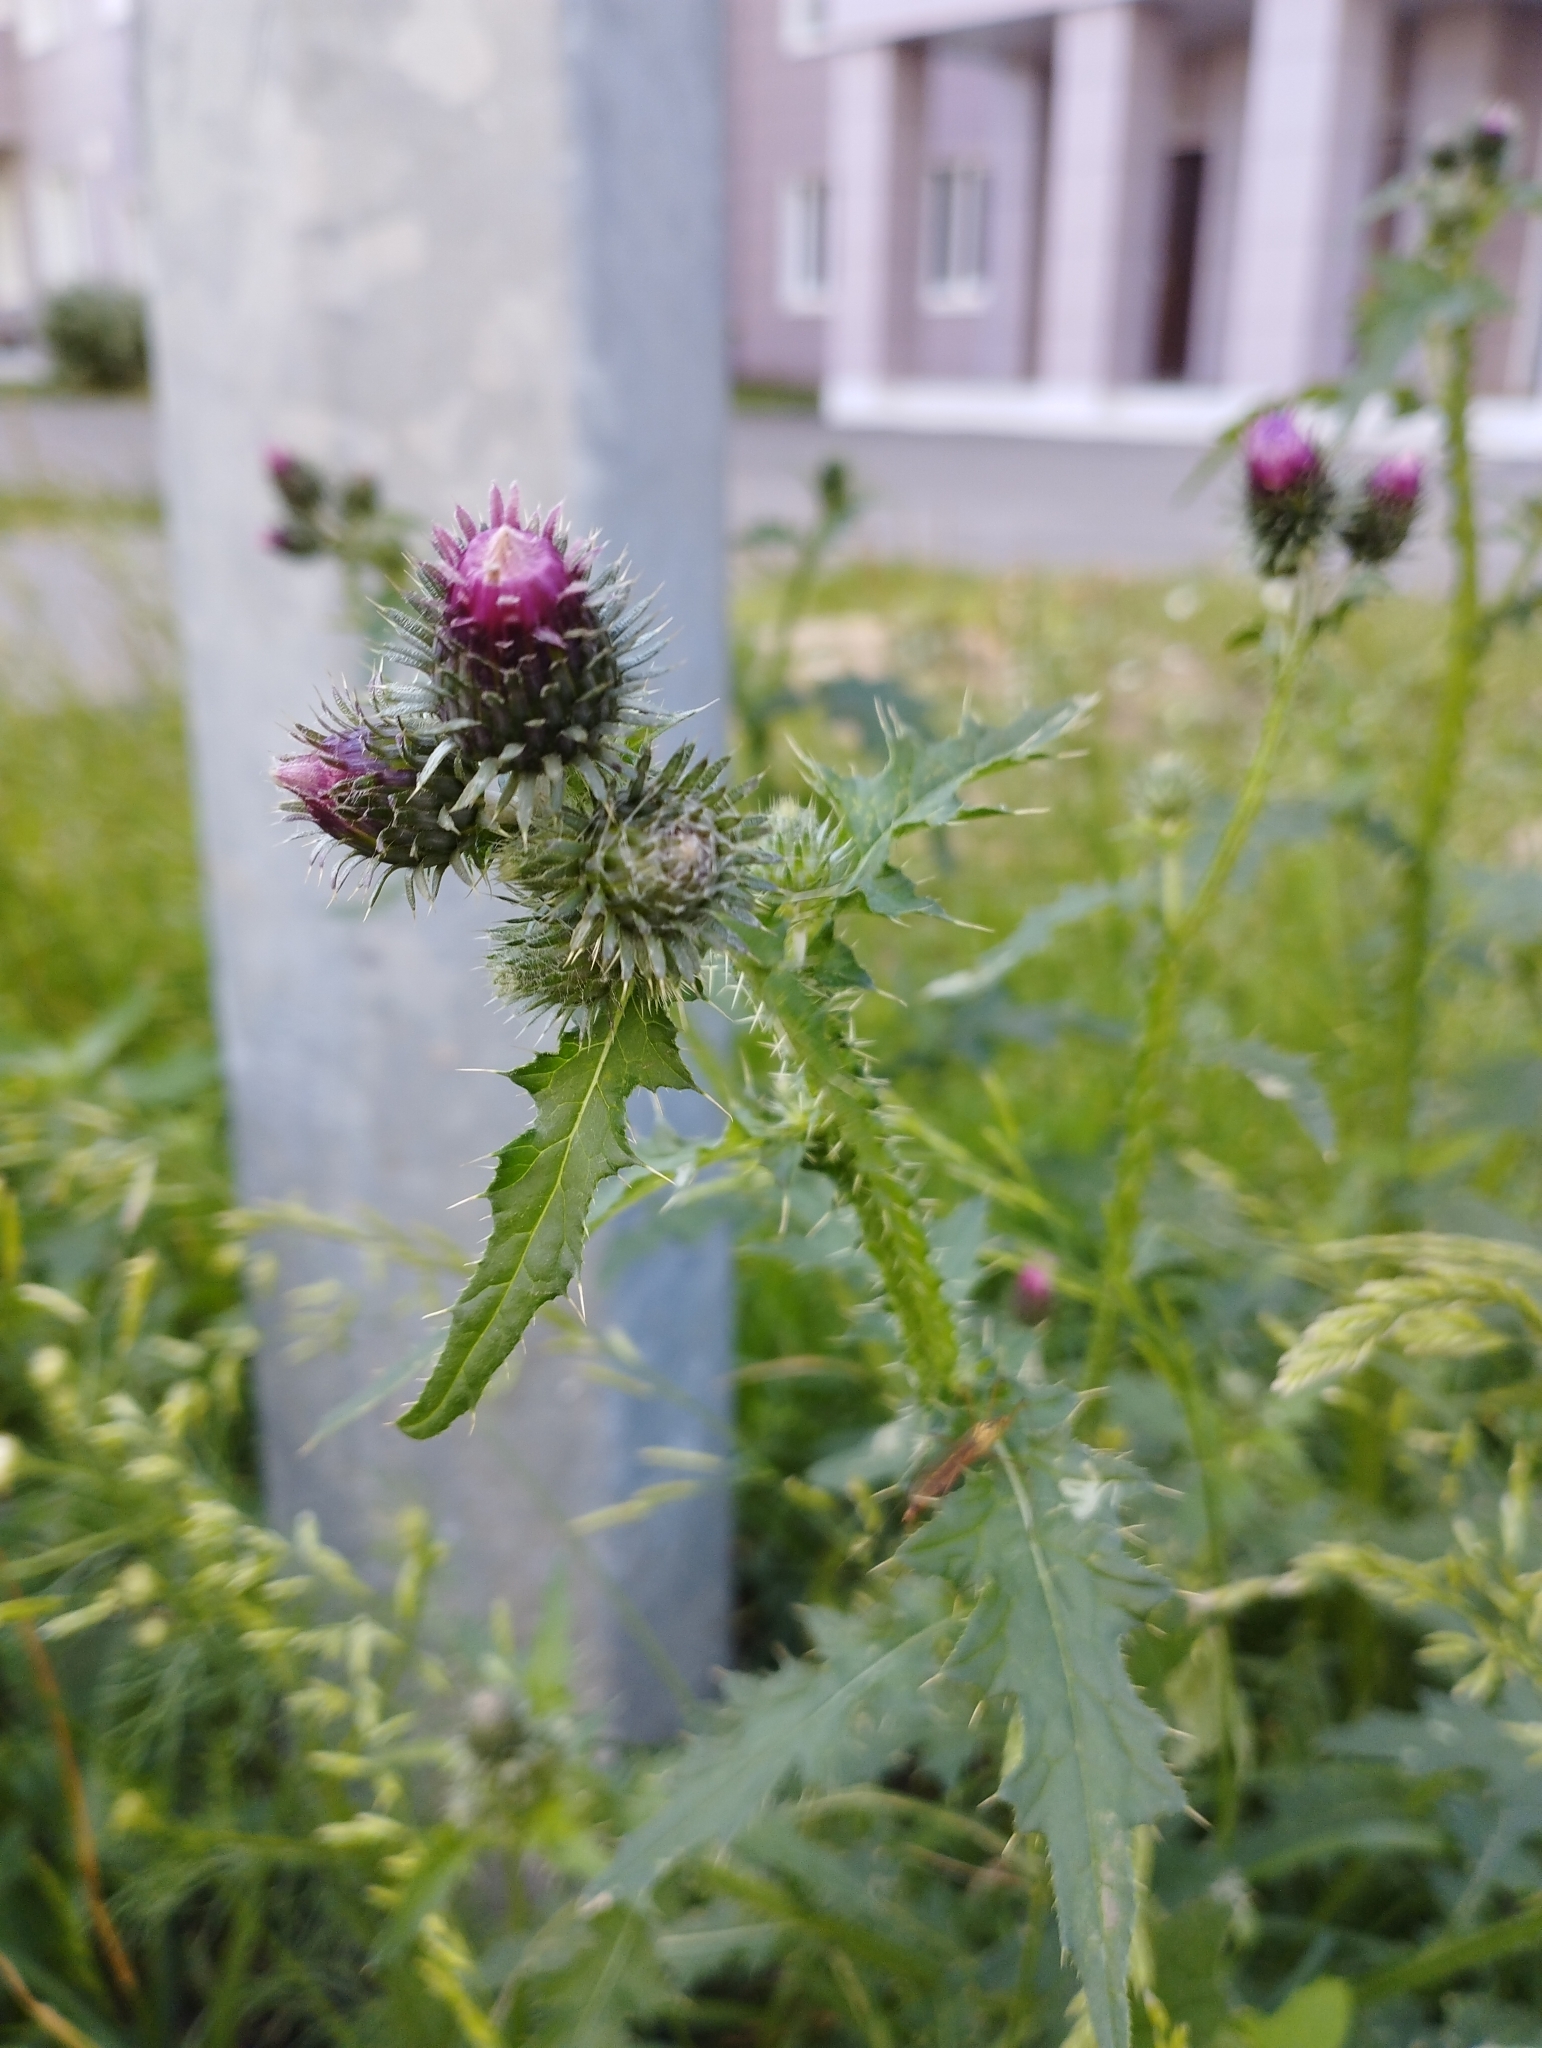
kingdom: Plantae
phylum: Tracheophyta
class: Magnoliopsida
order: Asterales
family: Asteraceae
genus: Carduus
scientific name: Carduus crispus
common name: Welted thistle
